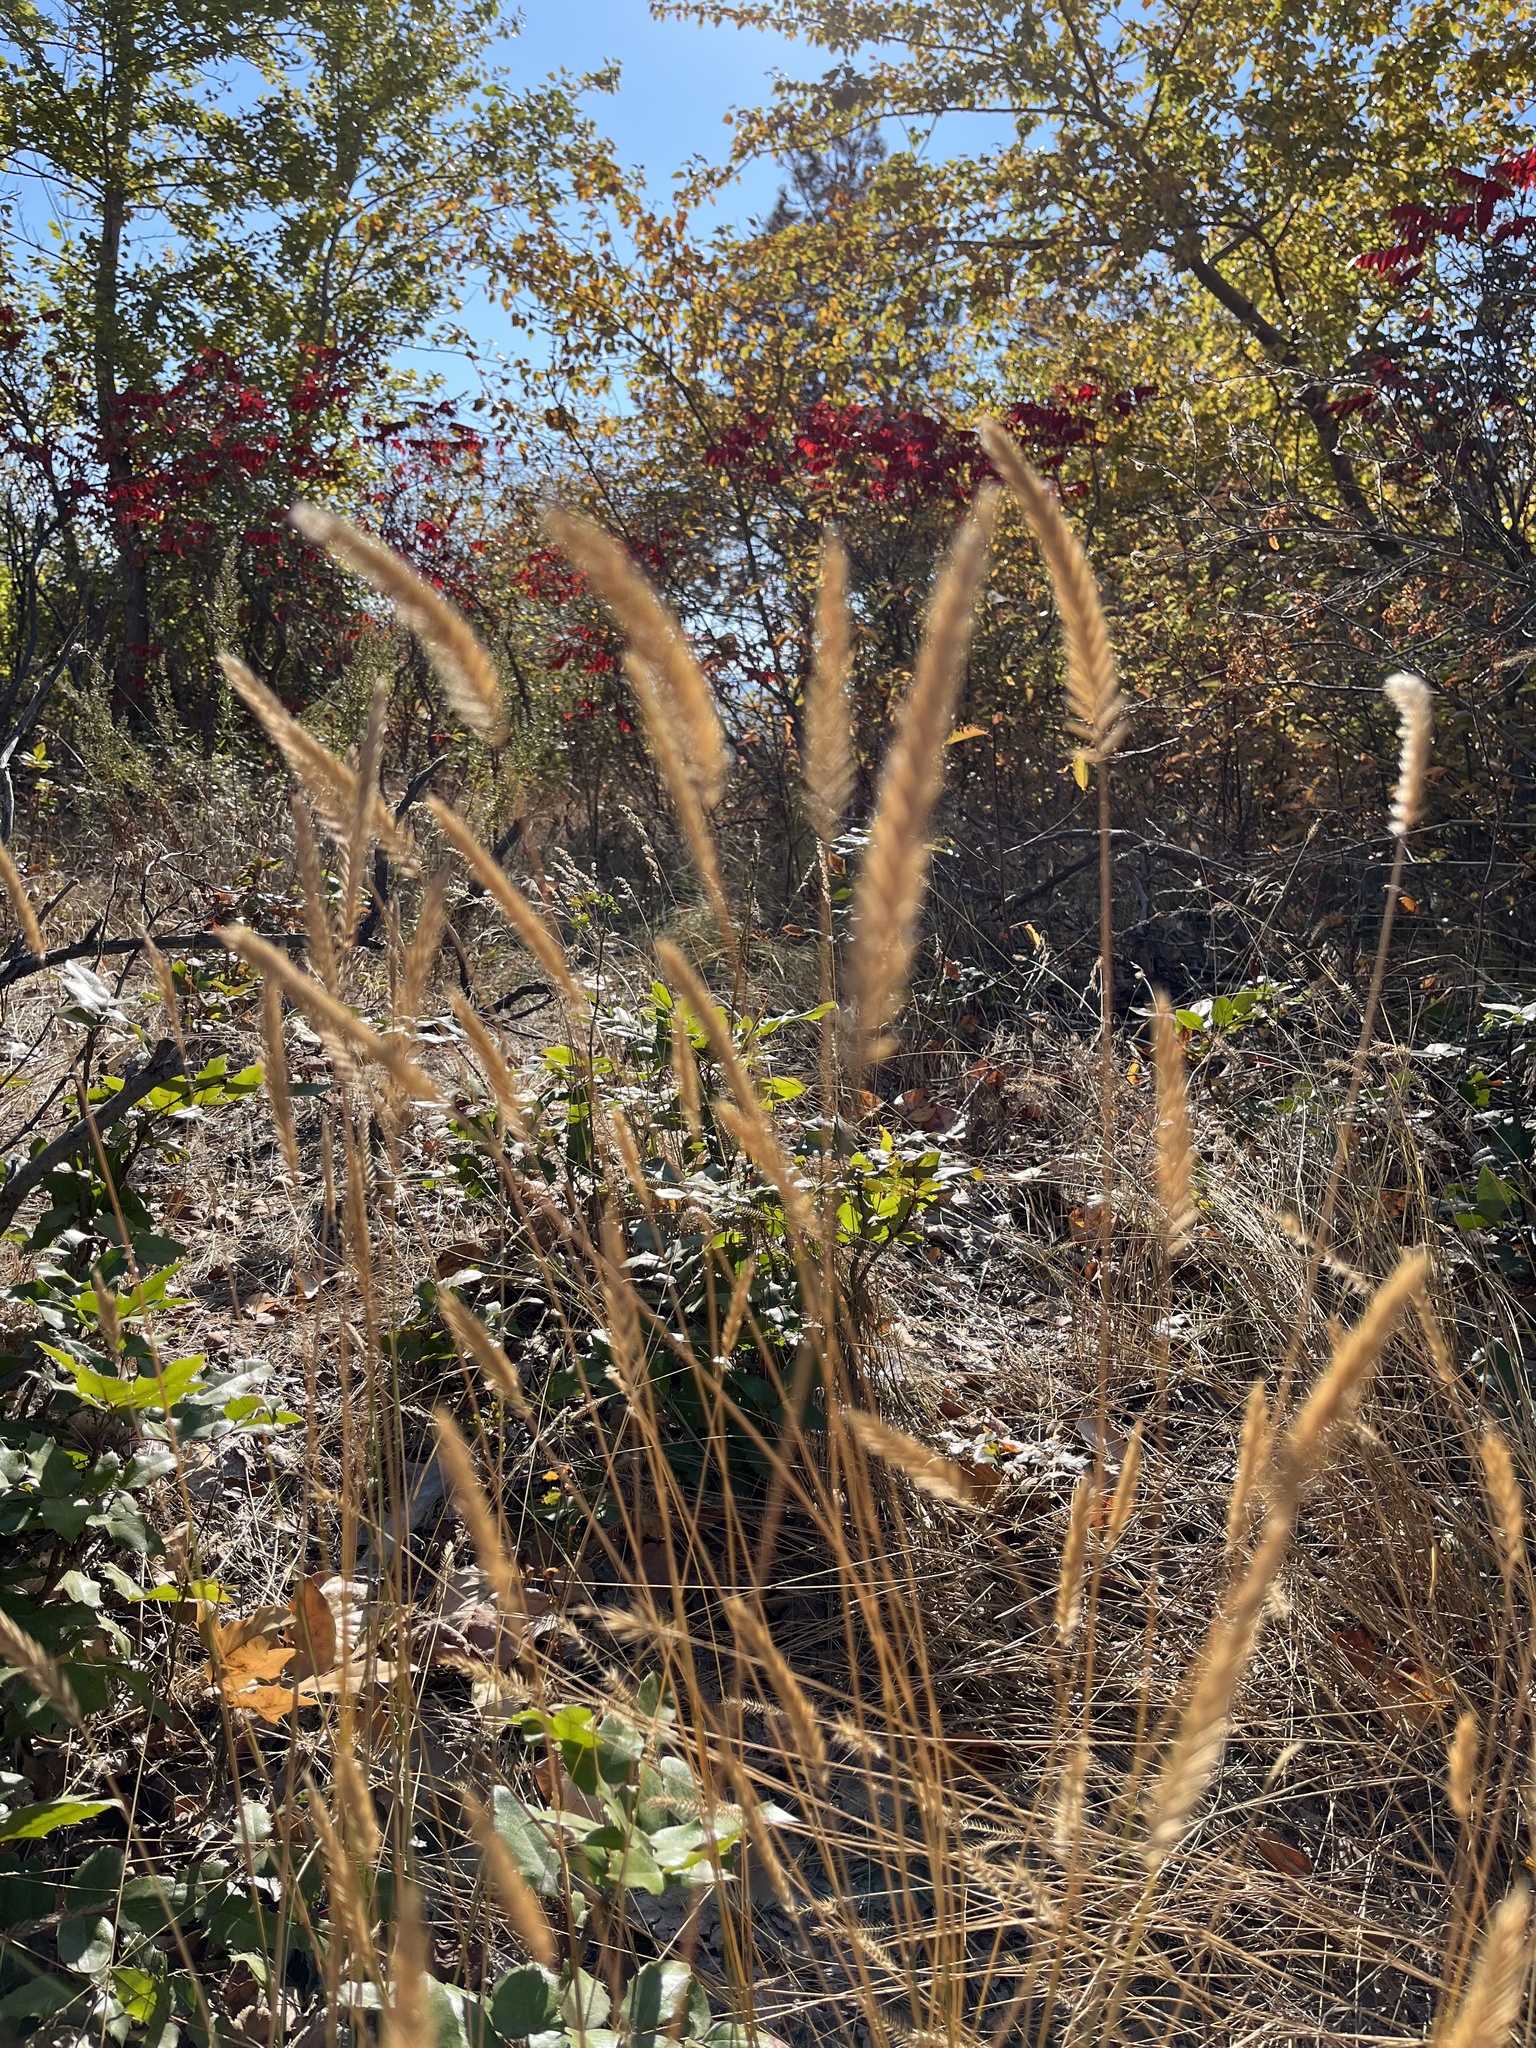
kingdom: Plantae
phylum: Tracheophyta
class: Liliopsida
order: Poales
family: Poaceae
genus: Agropyron
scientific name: Agropyron cristatum
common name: Crested wheatgrass
